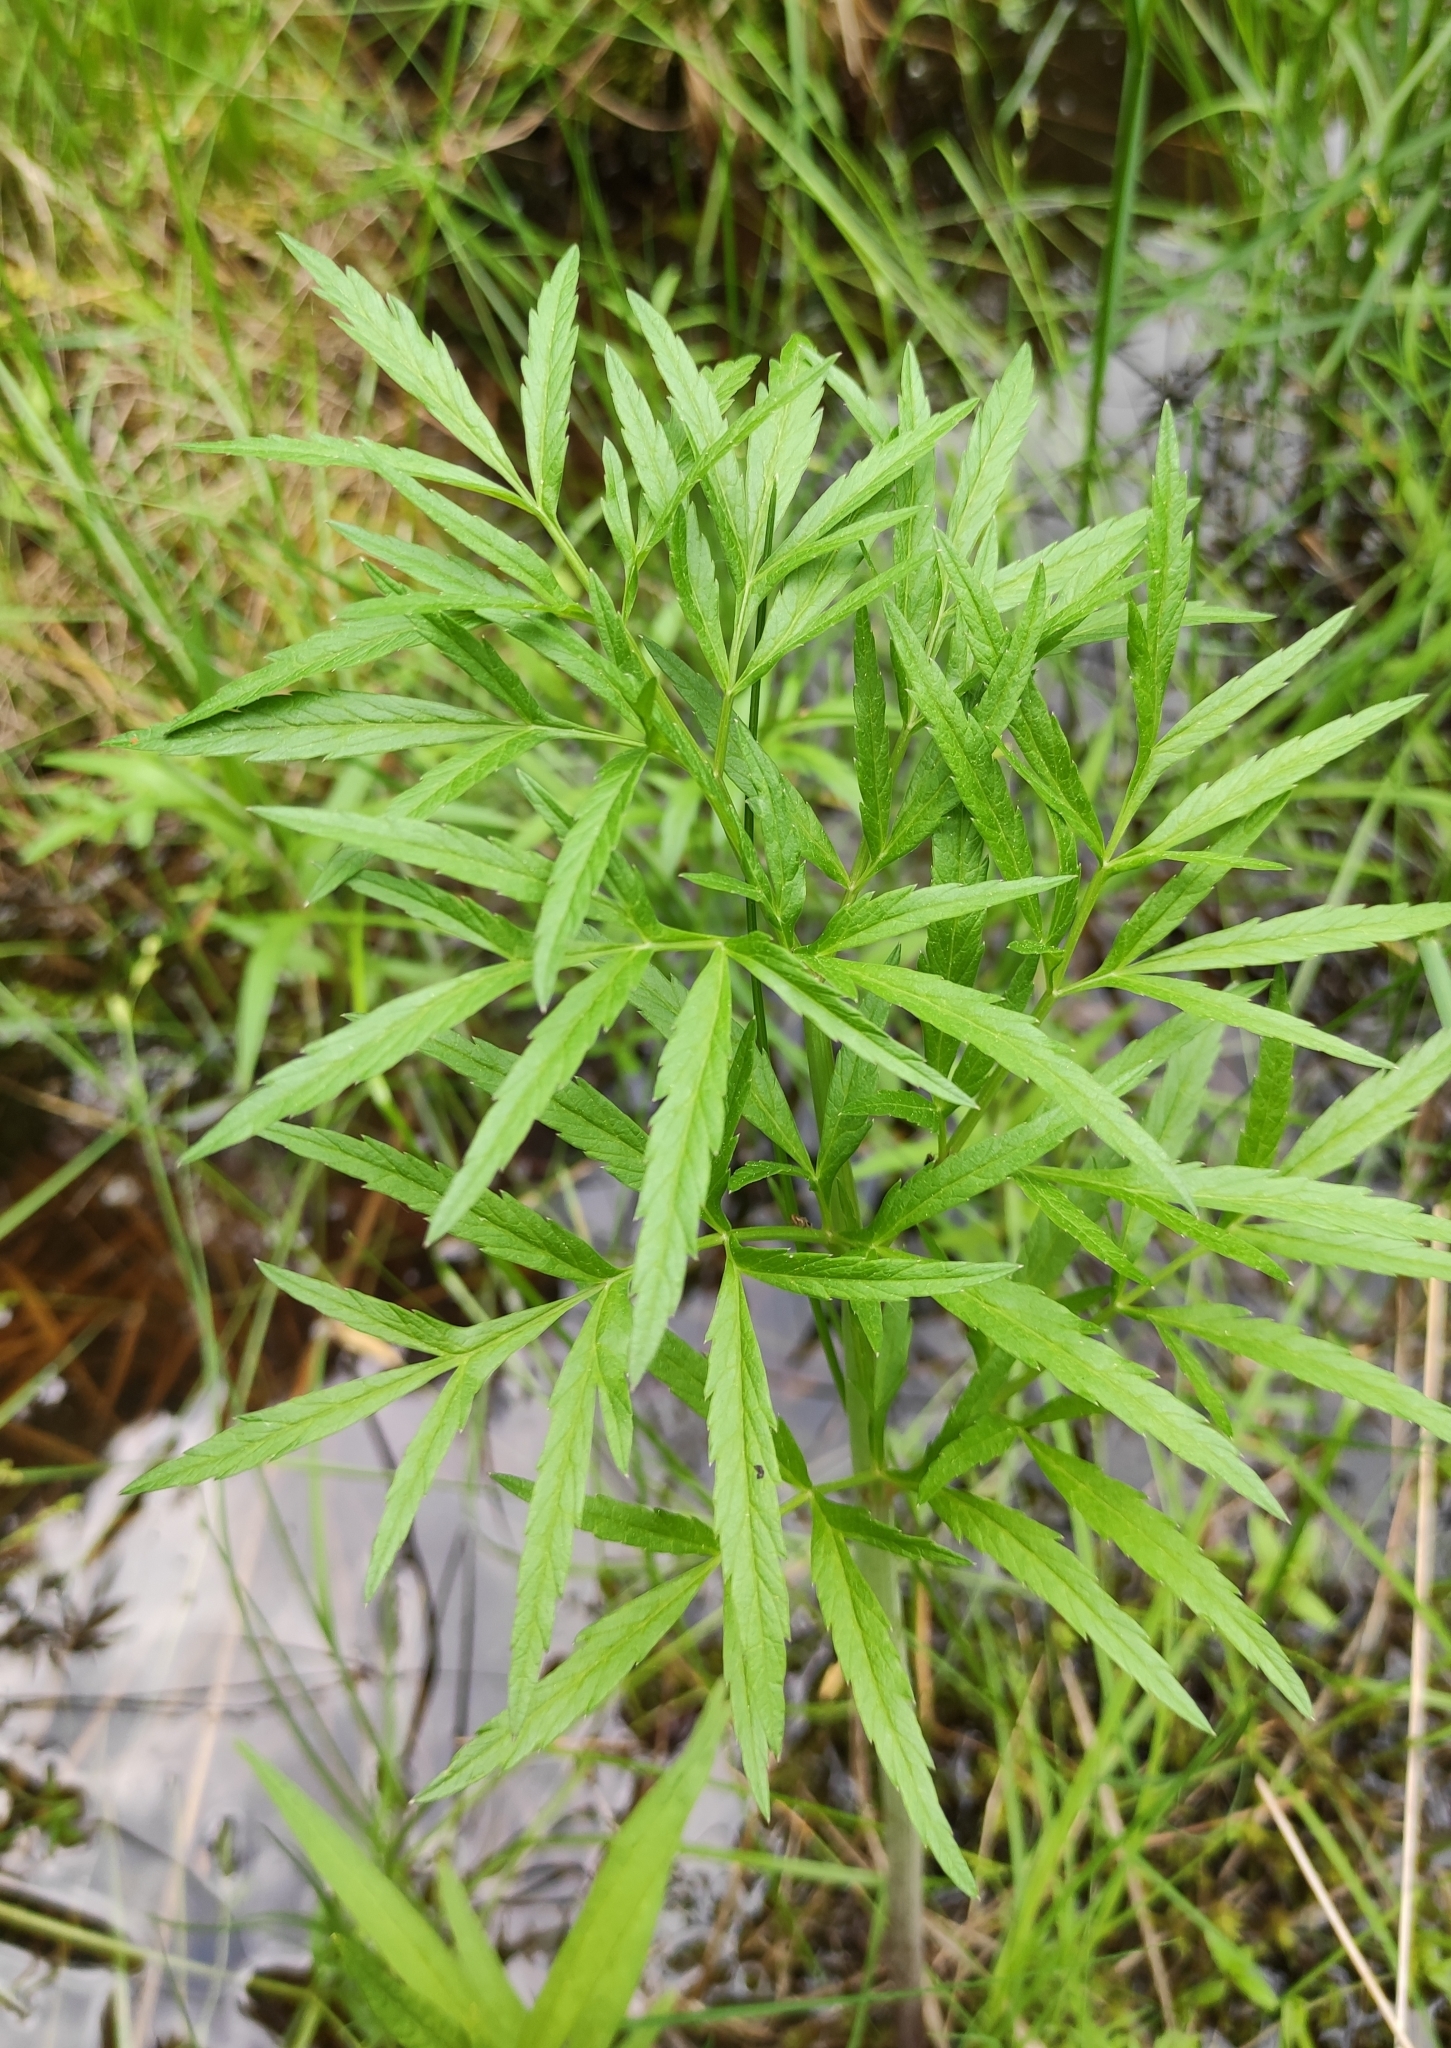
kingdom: Plantae
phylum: Tracheophyta
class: Magnoliopsida
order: Apiales
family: Apiaceae
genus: Cicuta
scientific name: Cicuta virosa
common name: Cowbane
